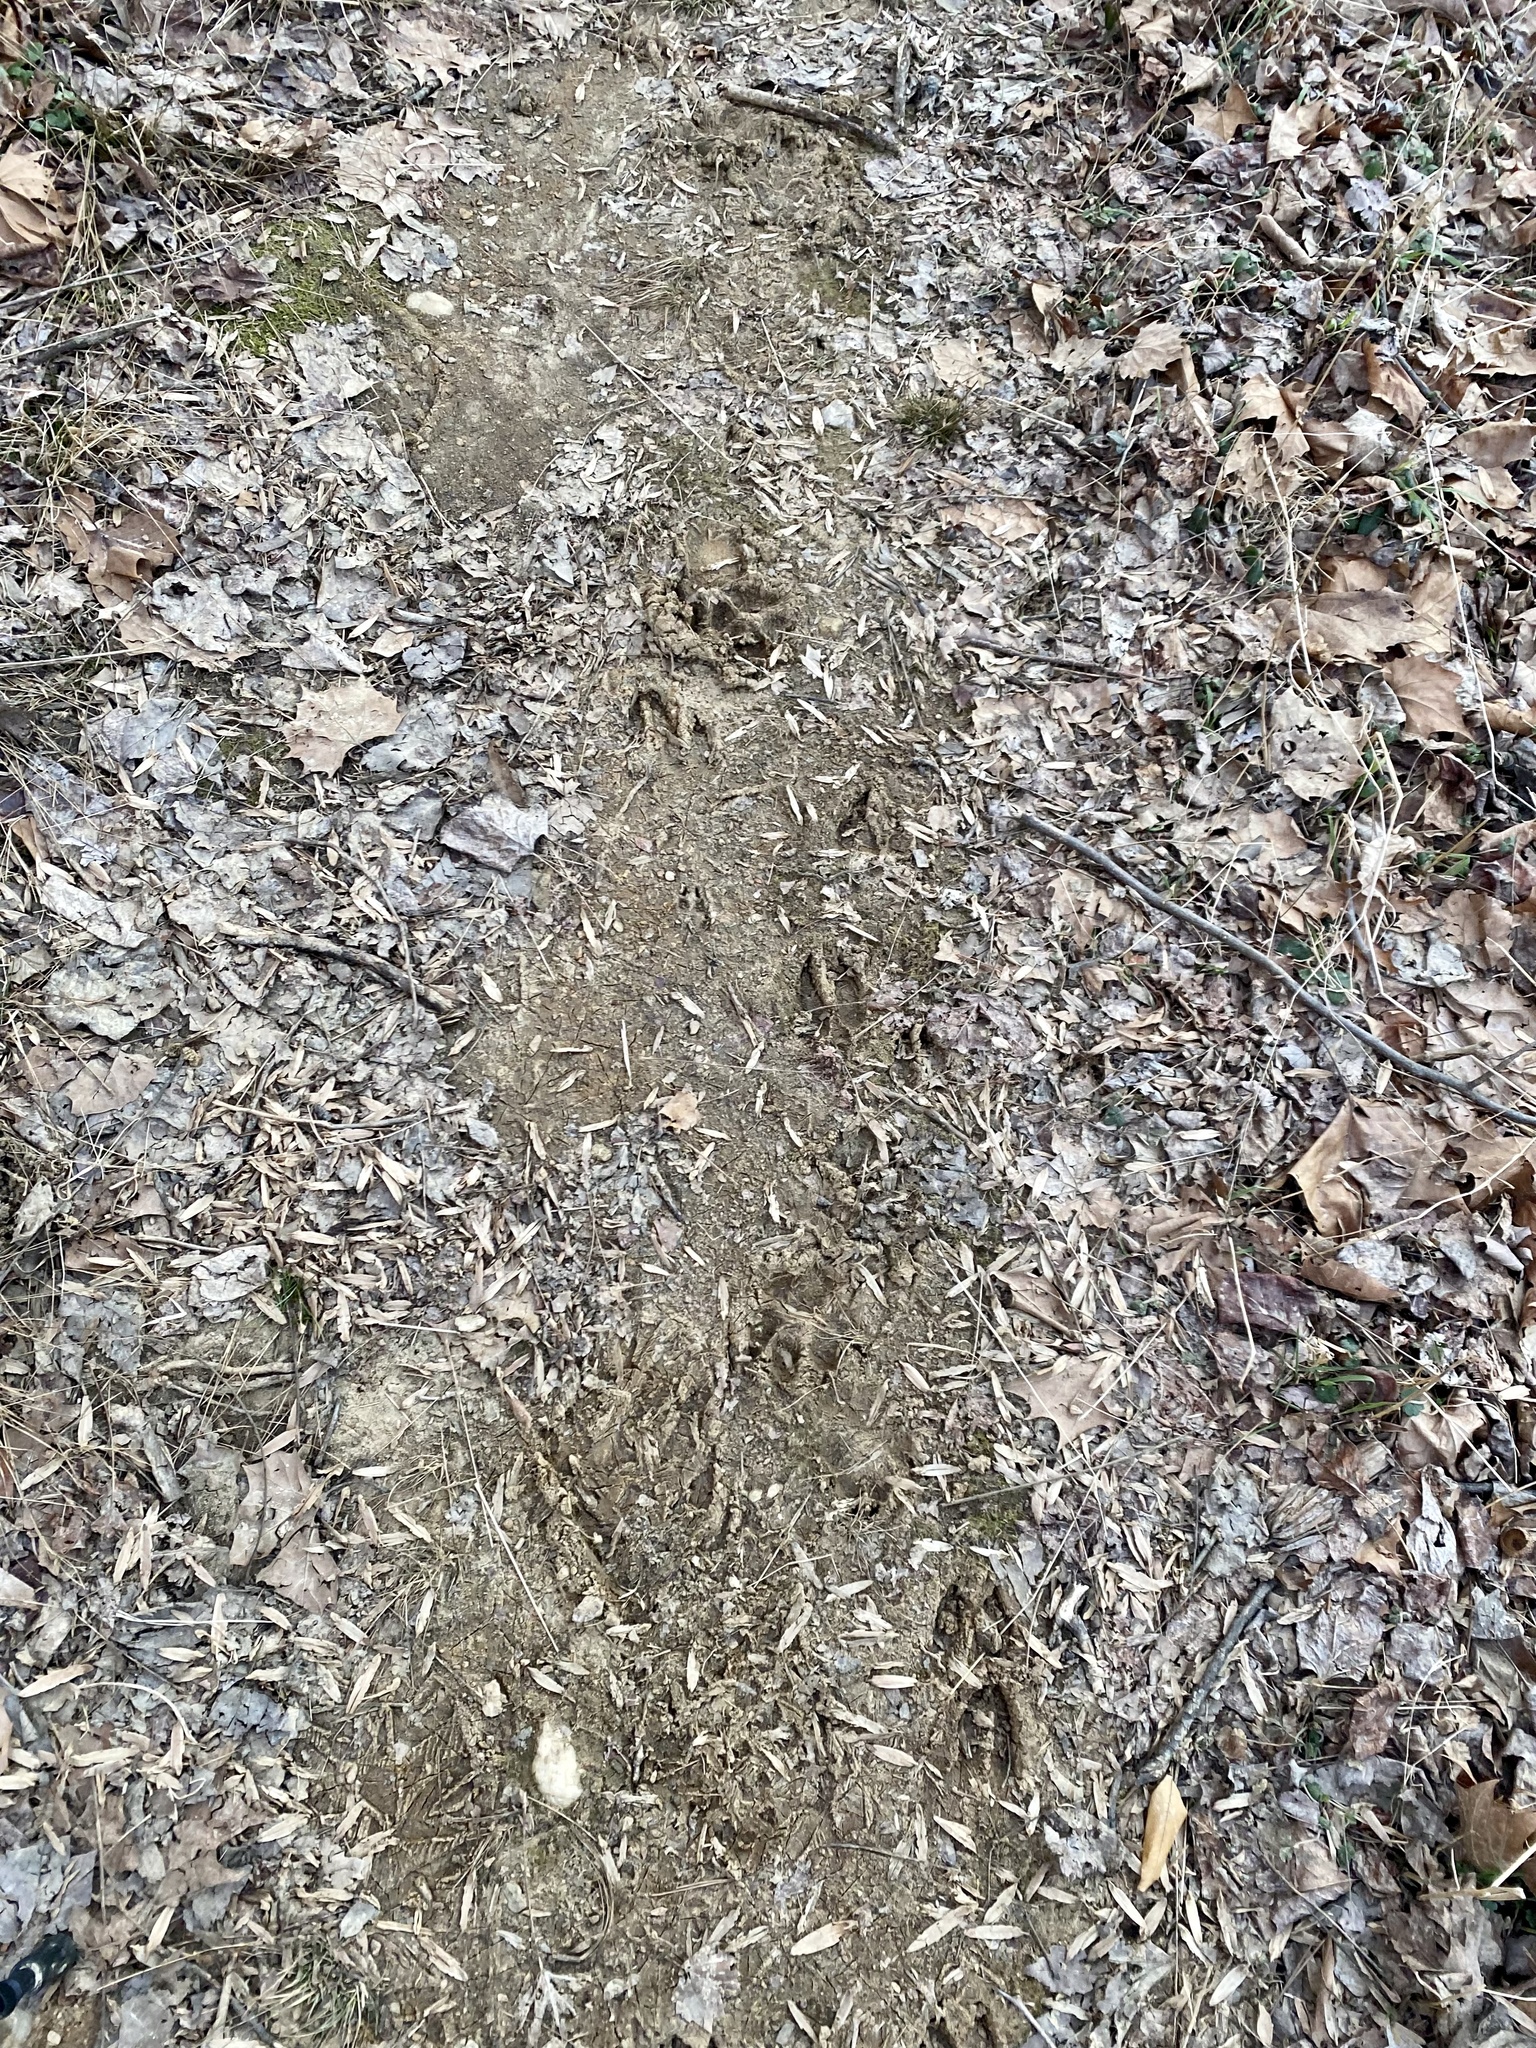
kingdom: Animalia
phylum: Chordata
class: Mammalia
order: Artiodactyla
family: Cervidae
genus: Odocoileus
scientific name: Odocoileus virginianus
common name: White-tailed deer
